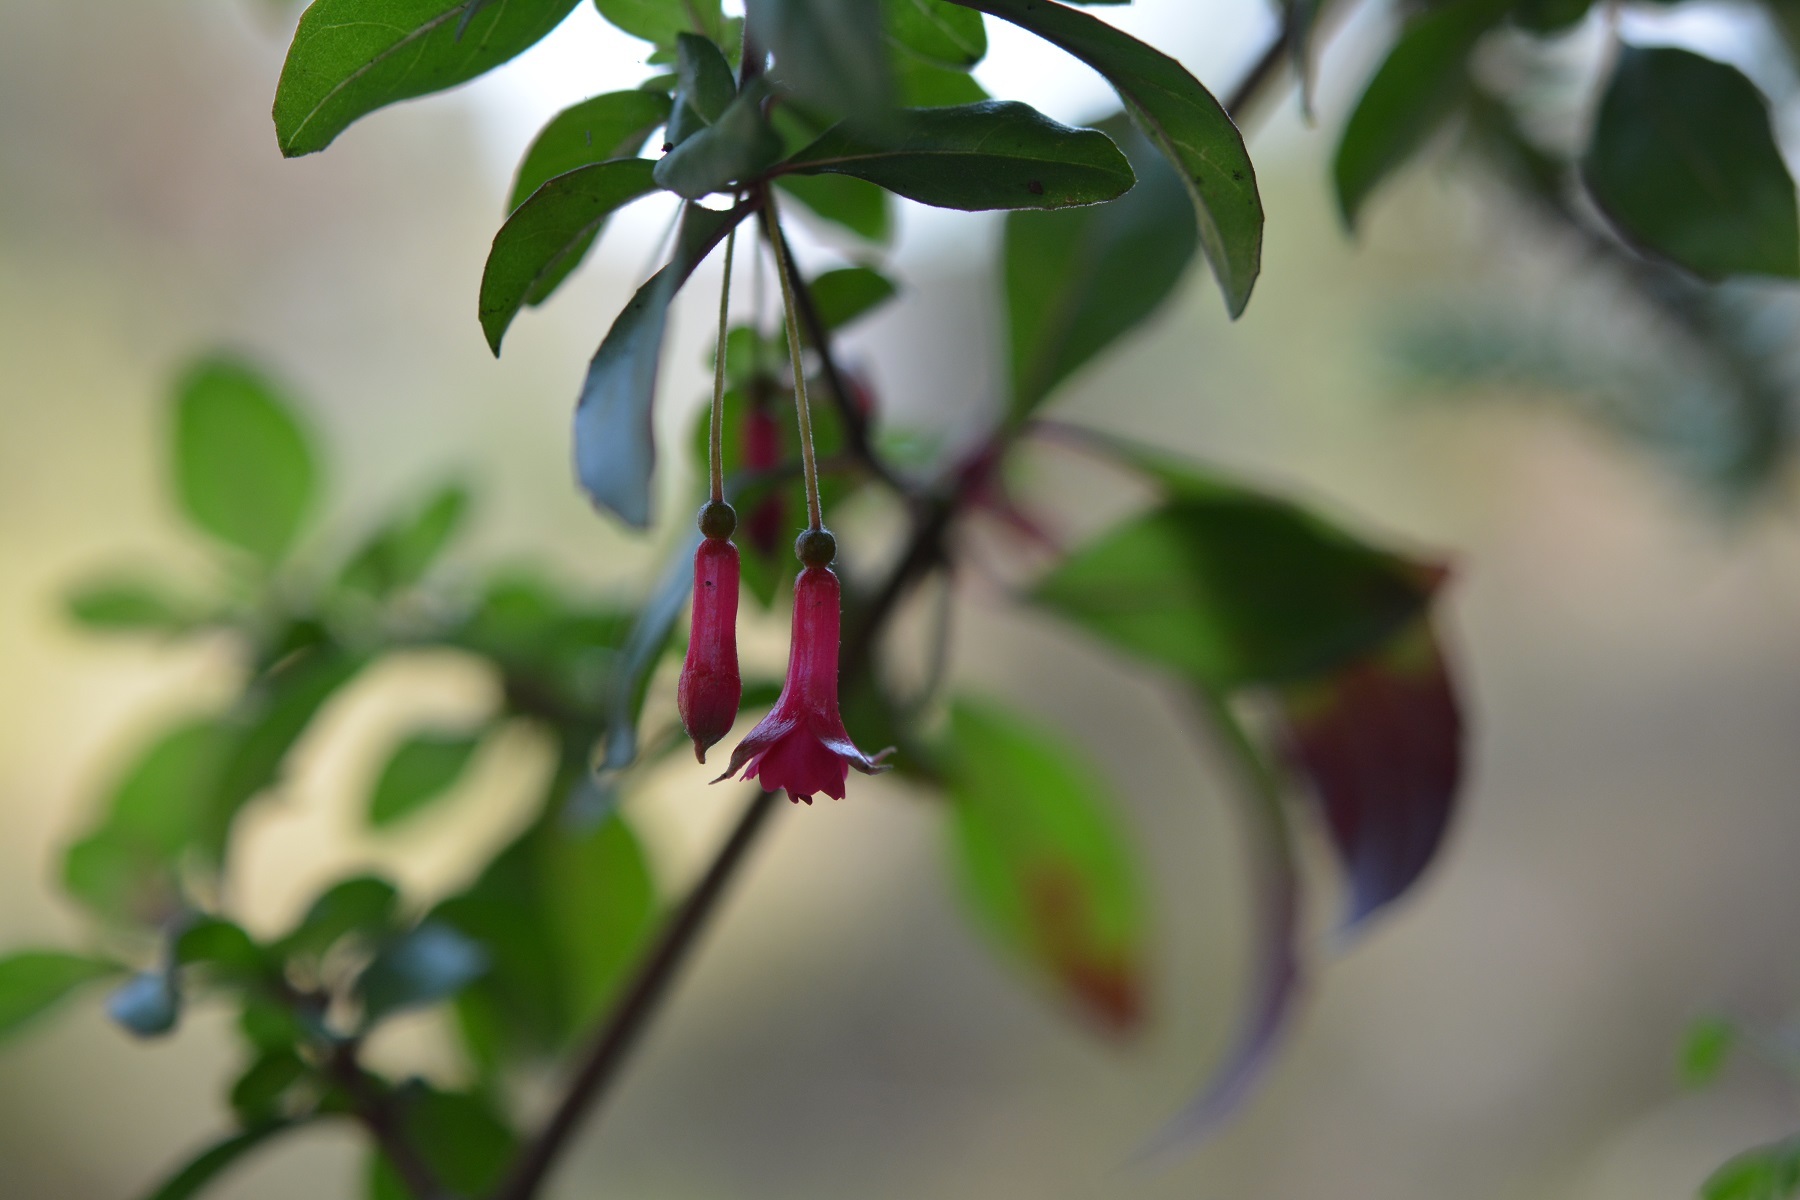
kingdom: Plantae
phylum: Tracheophyta
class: Magnoliopsida
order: Myrtales
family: Onagraceae
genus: Fuchsia
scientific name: Fuchsia thymifolia
